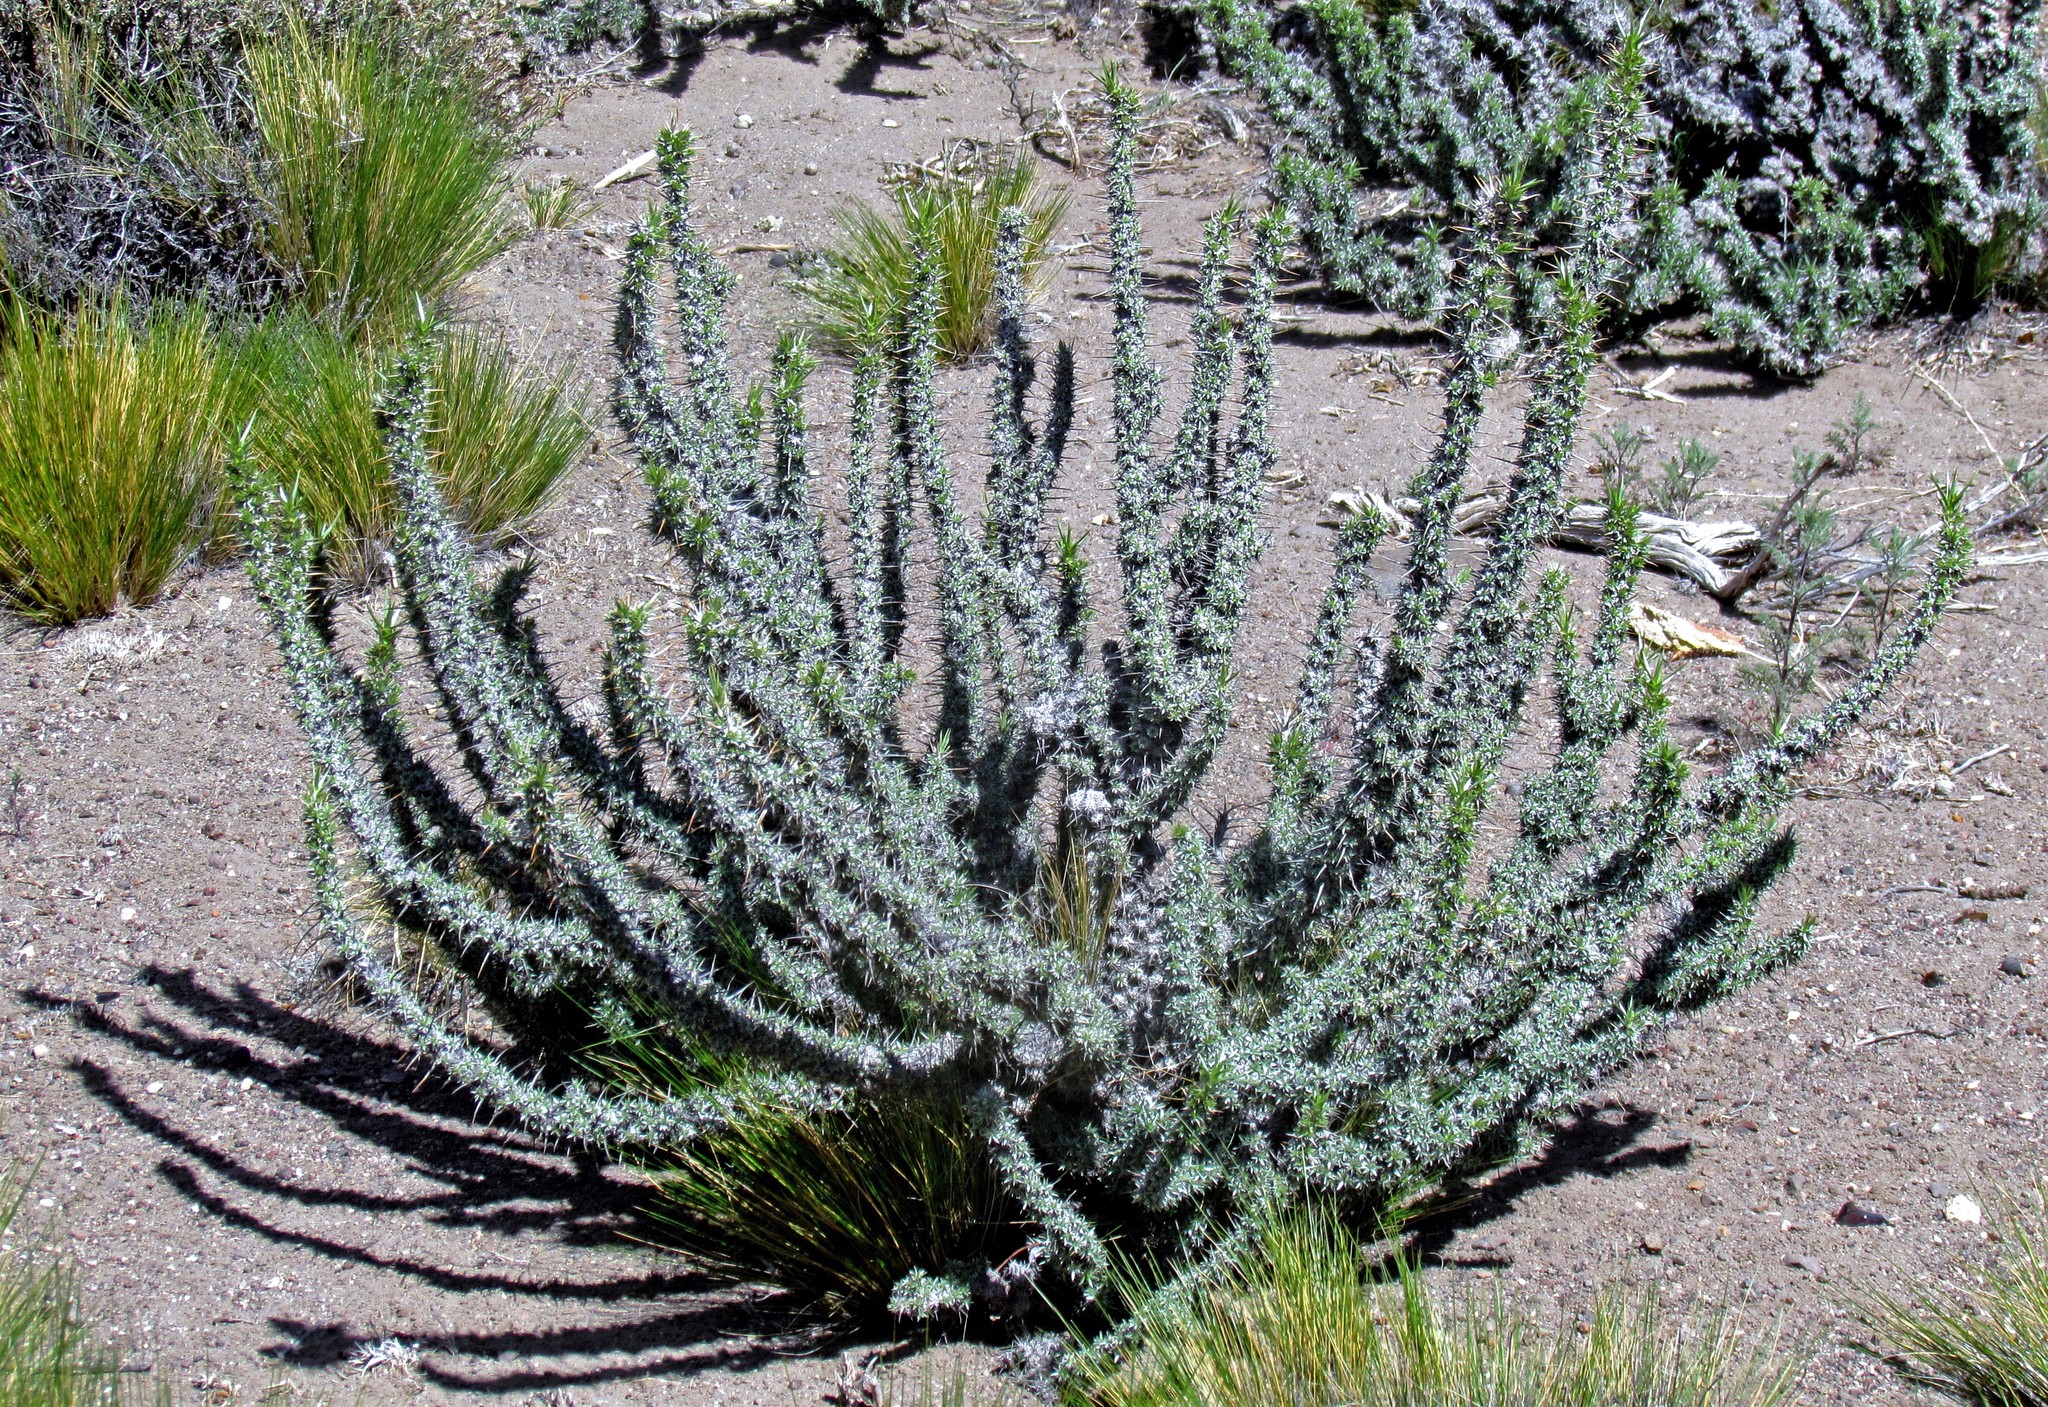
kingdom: Plantae
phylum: Tracheophyta
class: Magnoliopsida
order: Asterales
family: Asteraceae
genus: Nassauvia
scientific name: Nassauvia axillaris
